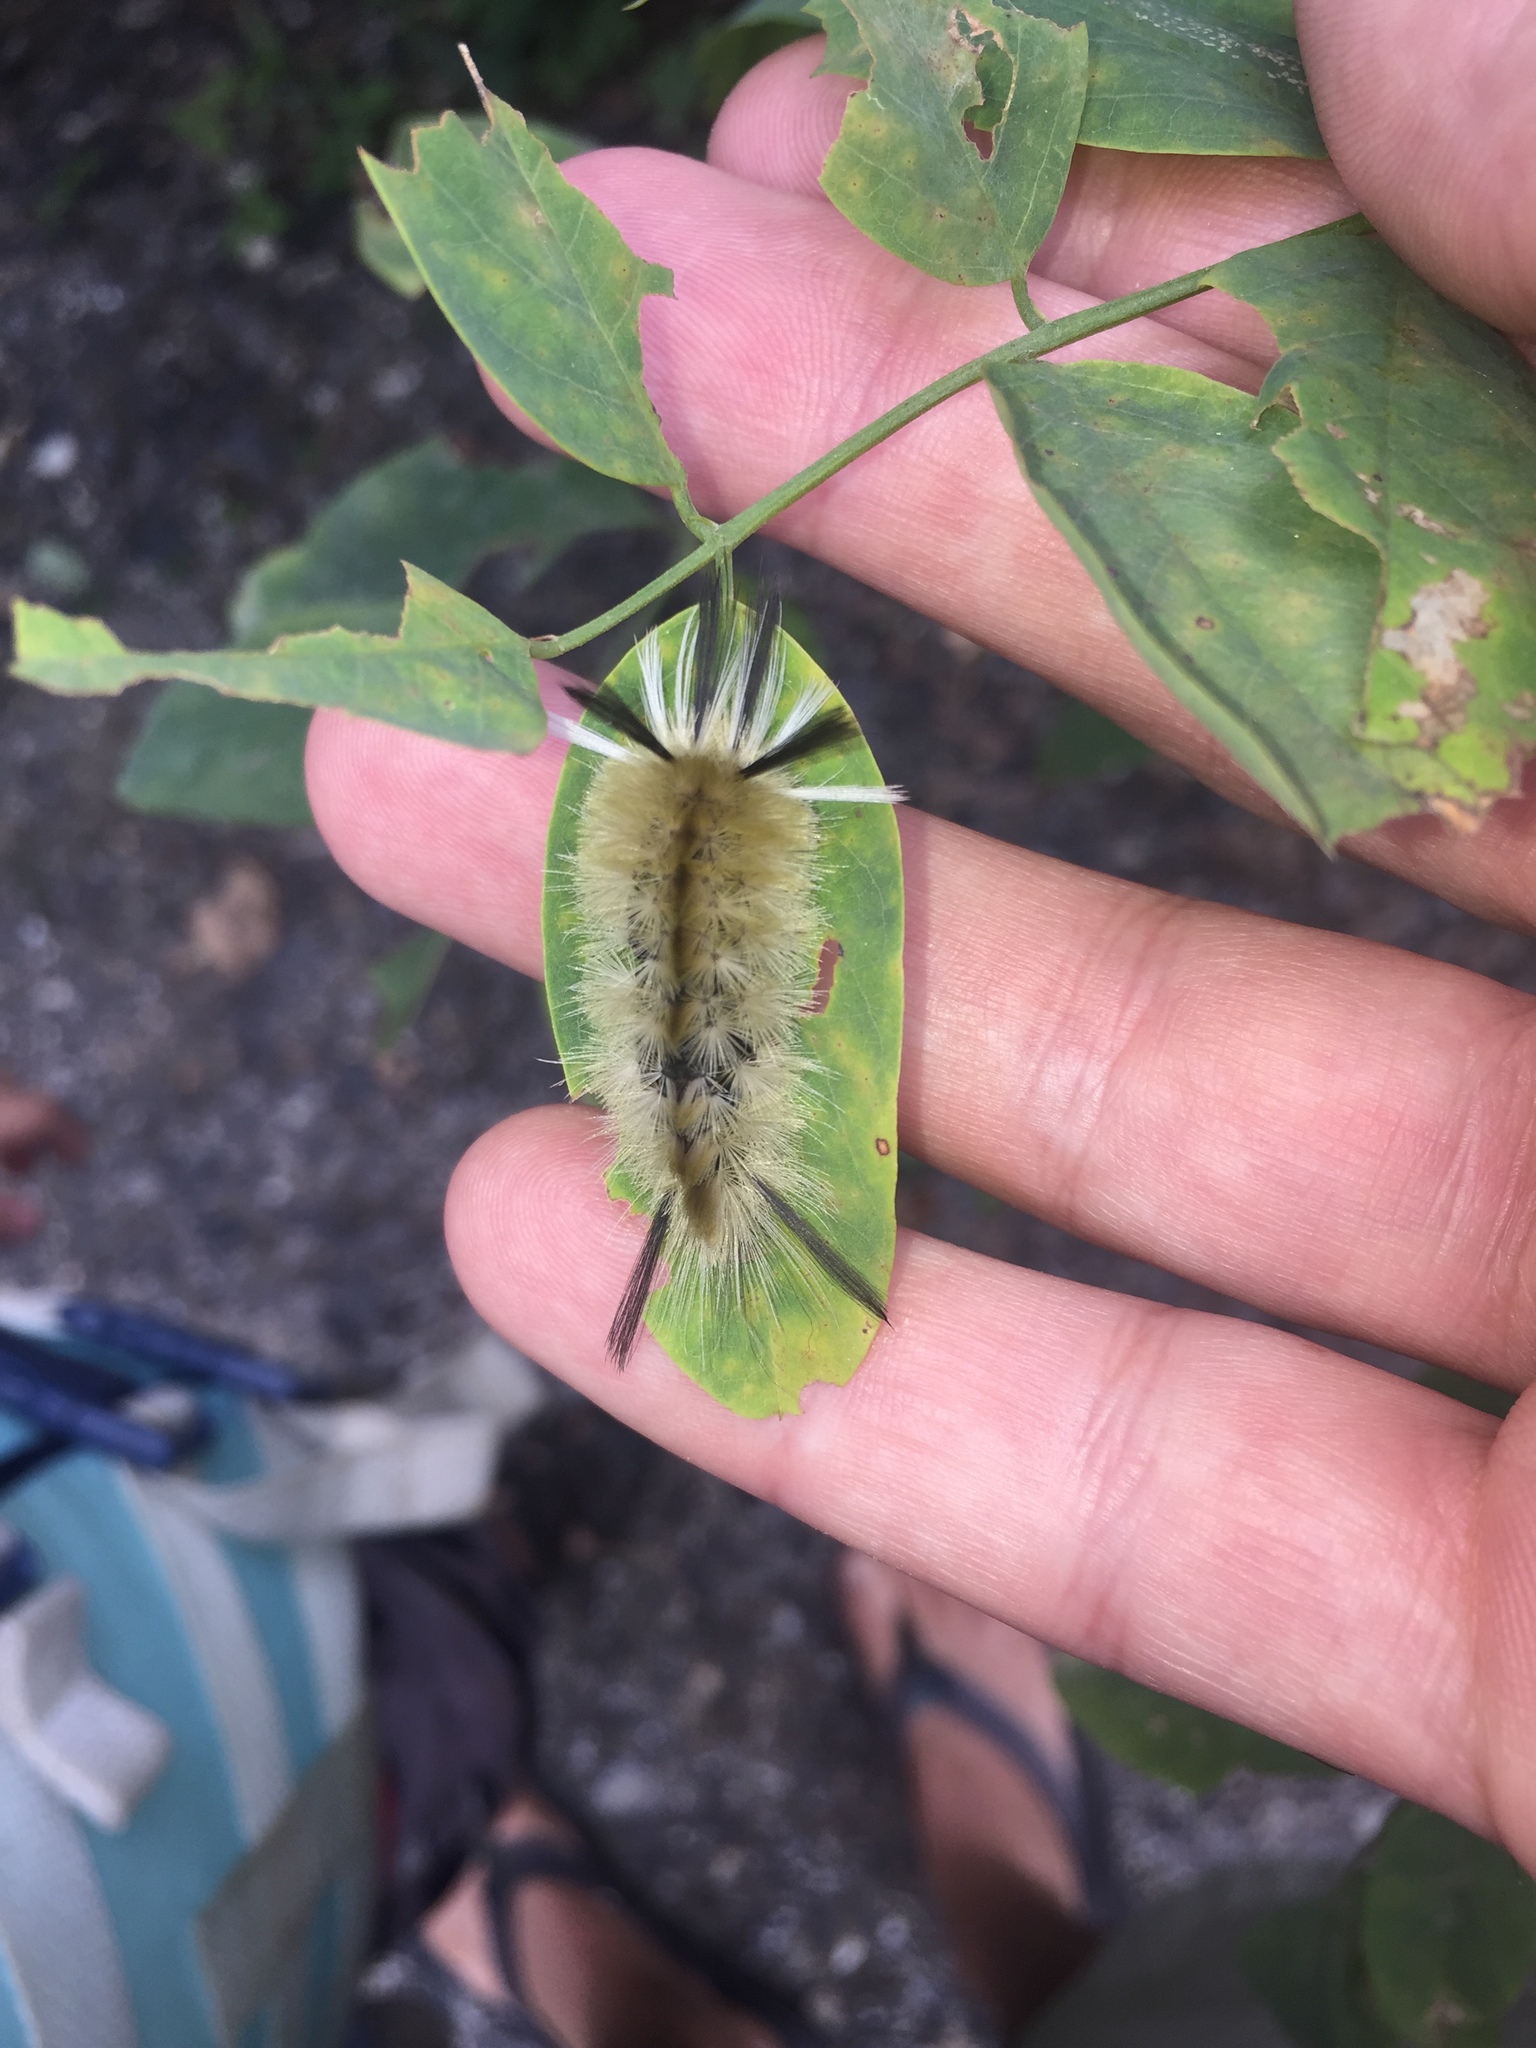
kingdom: Animalia
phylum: Arthropoda
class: Insecta
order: Lepidoptera
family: Erebidae
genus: Halysidota
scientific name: Halysidota tessellaris
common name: Banded tussock moth
